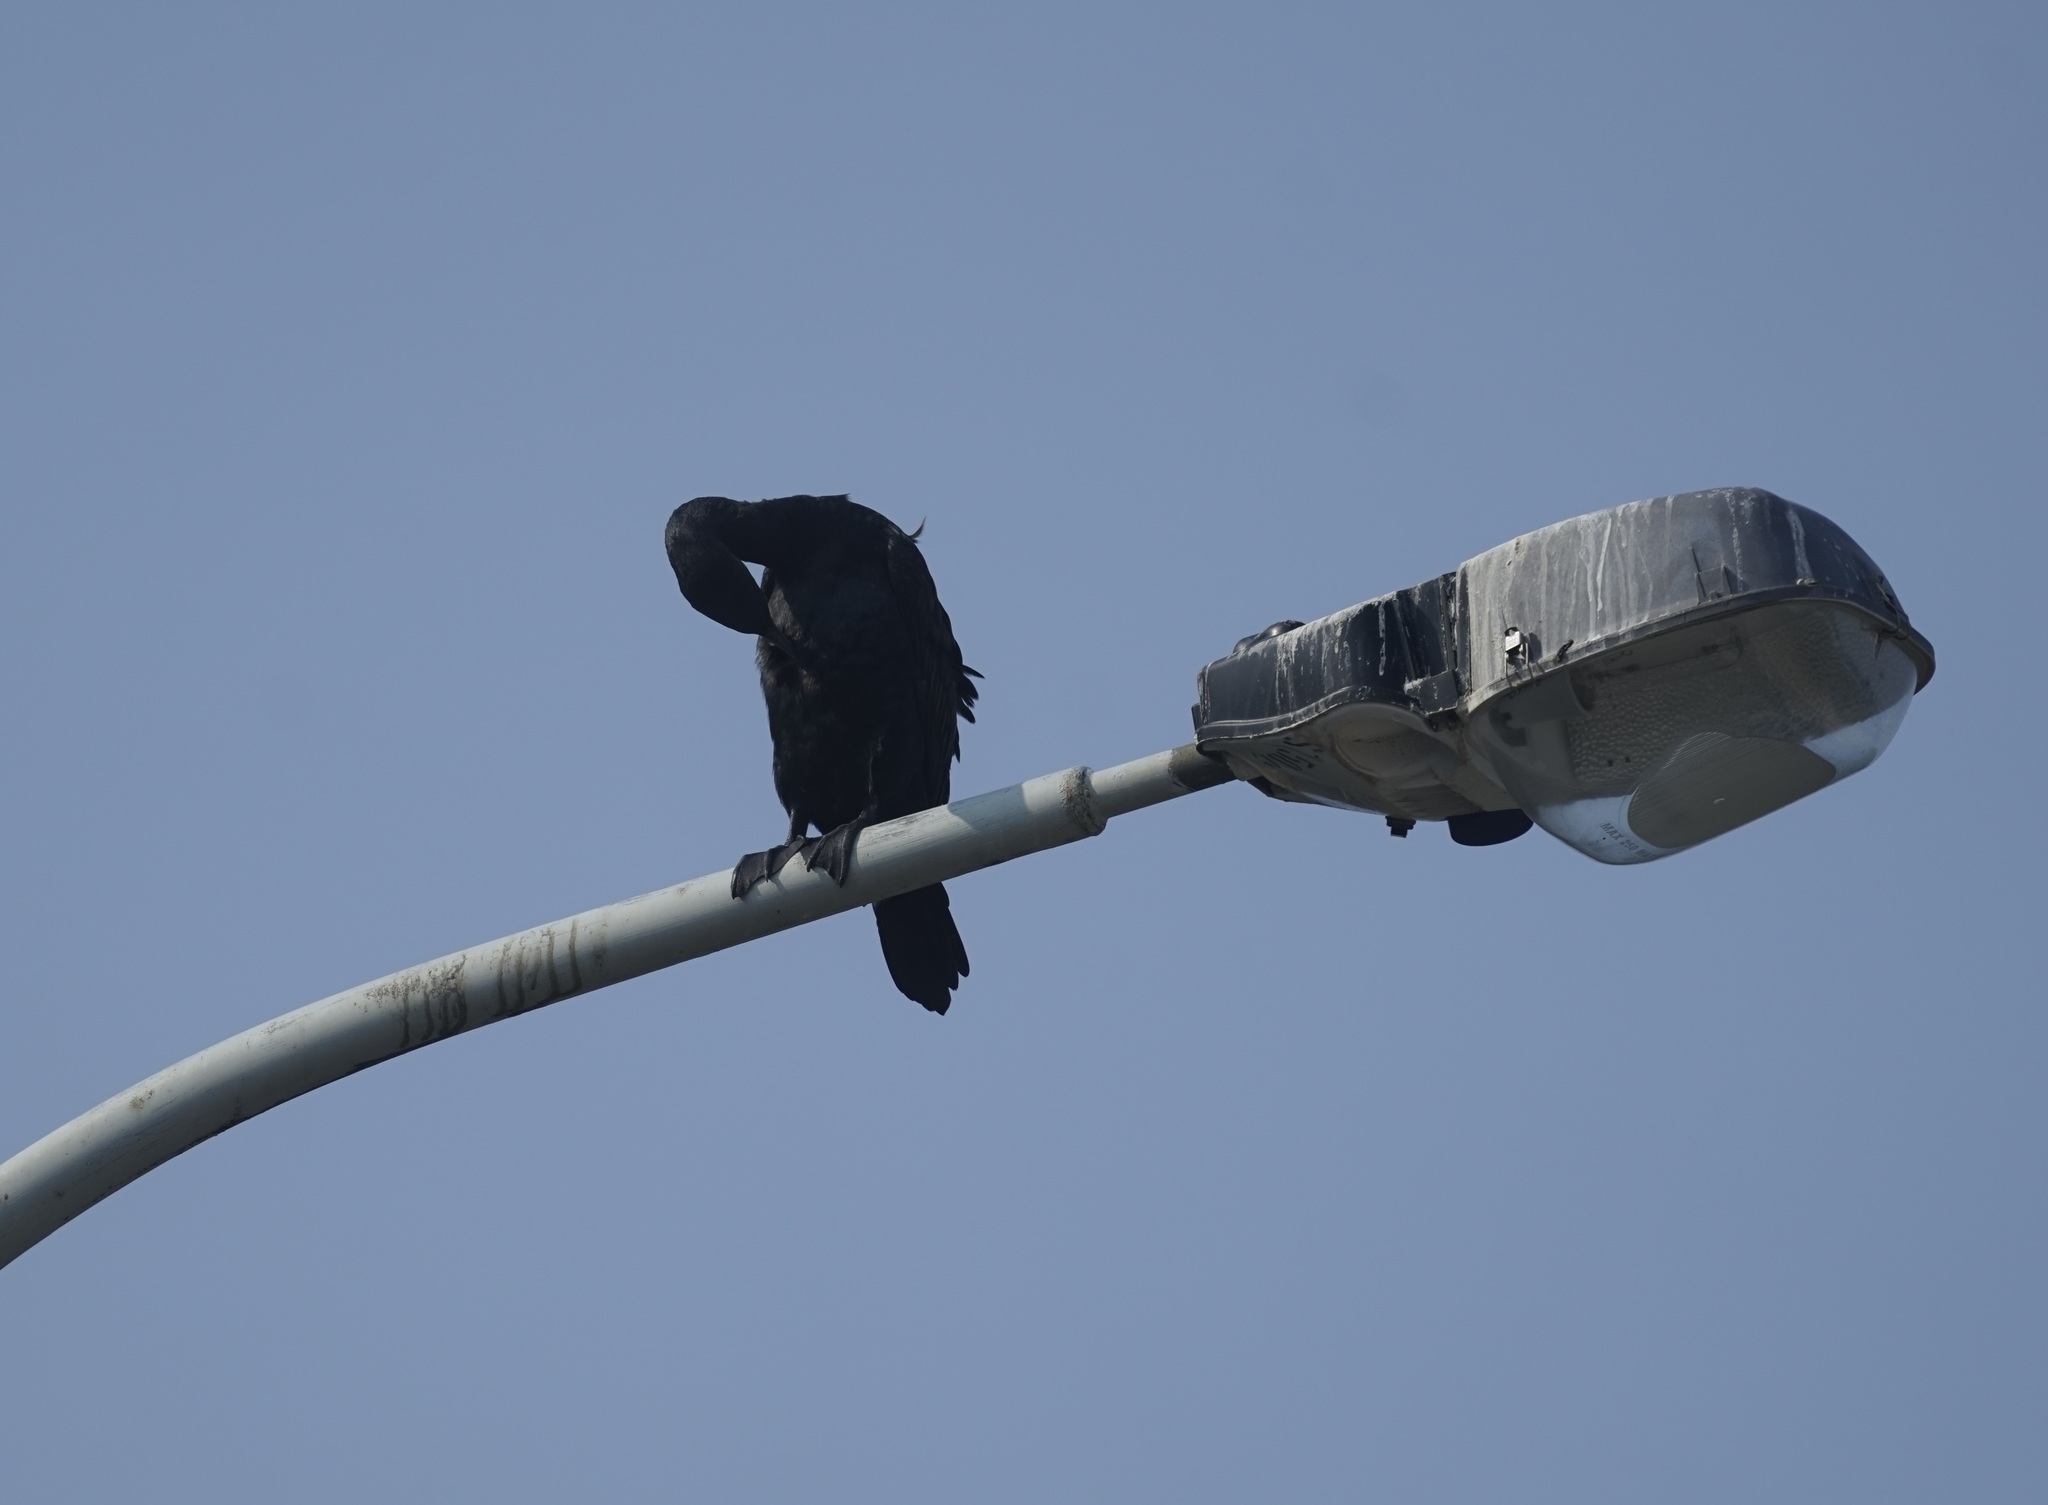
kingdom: Animalia
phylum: Chordata
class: Aves
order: Suliformes
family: Phalacrocoracidae
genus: Phalacrocorax
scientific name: Phalacrocorax carbo
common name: Great cormorant
